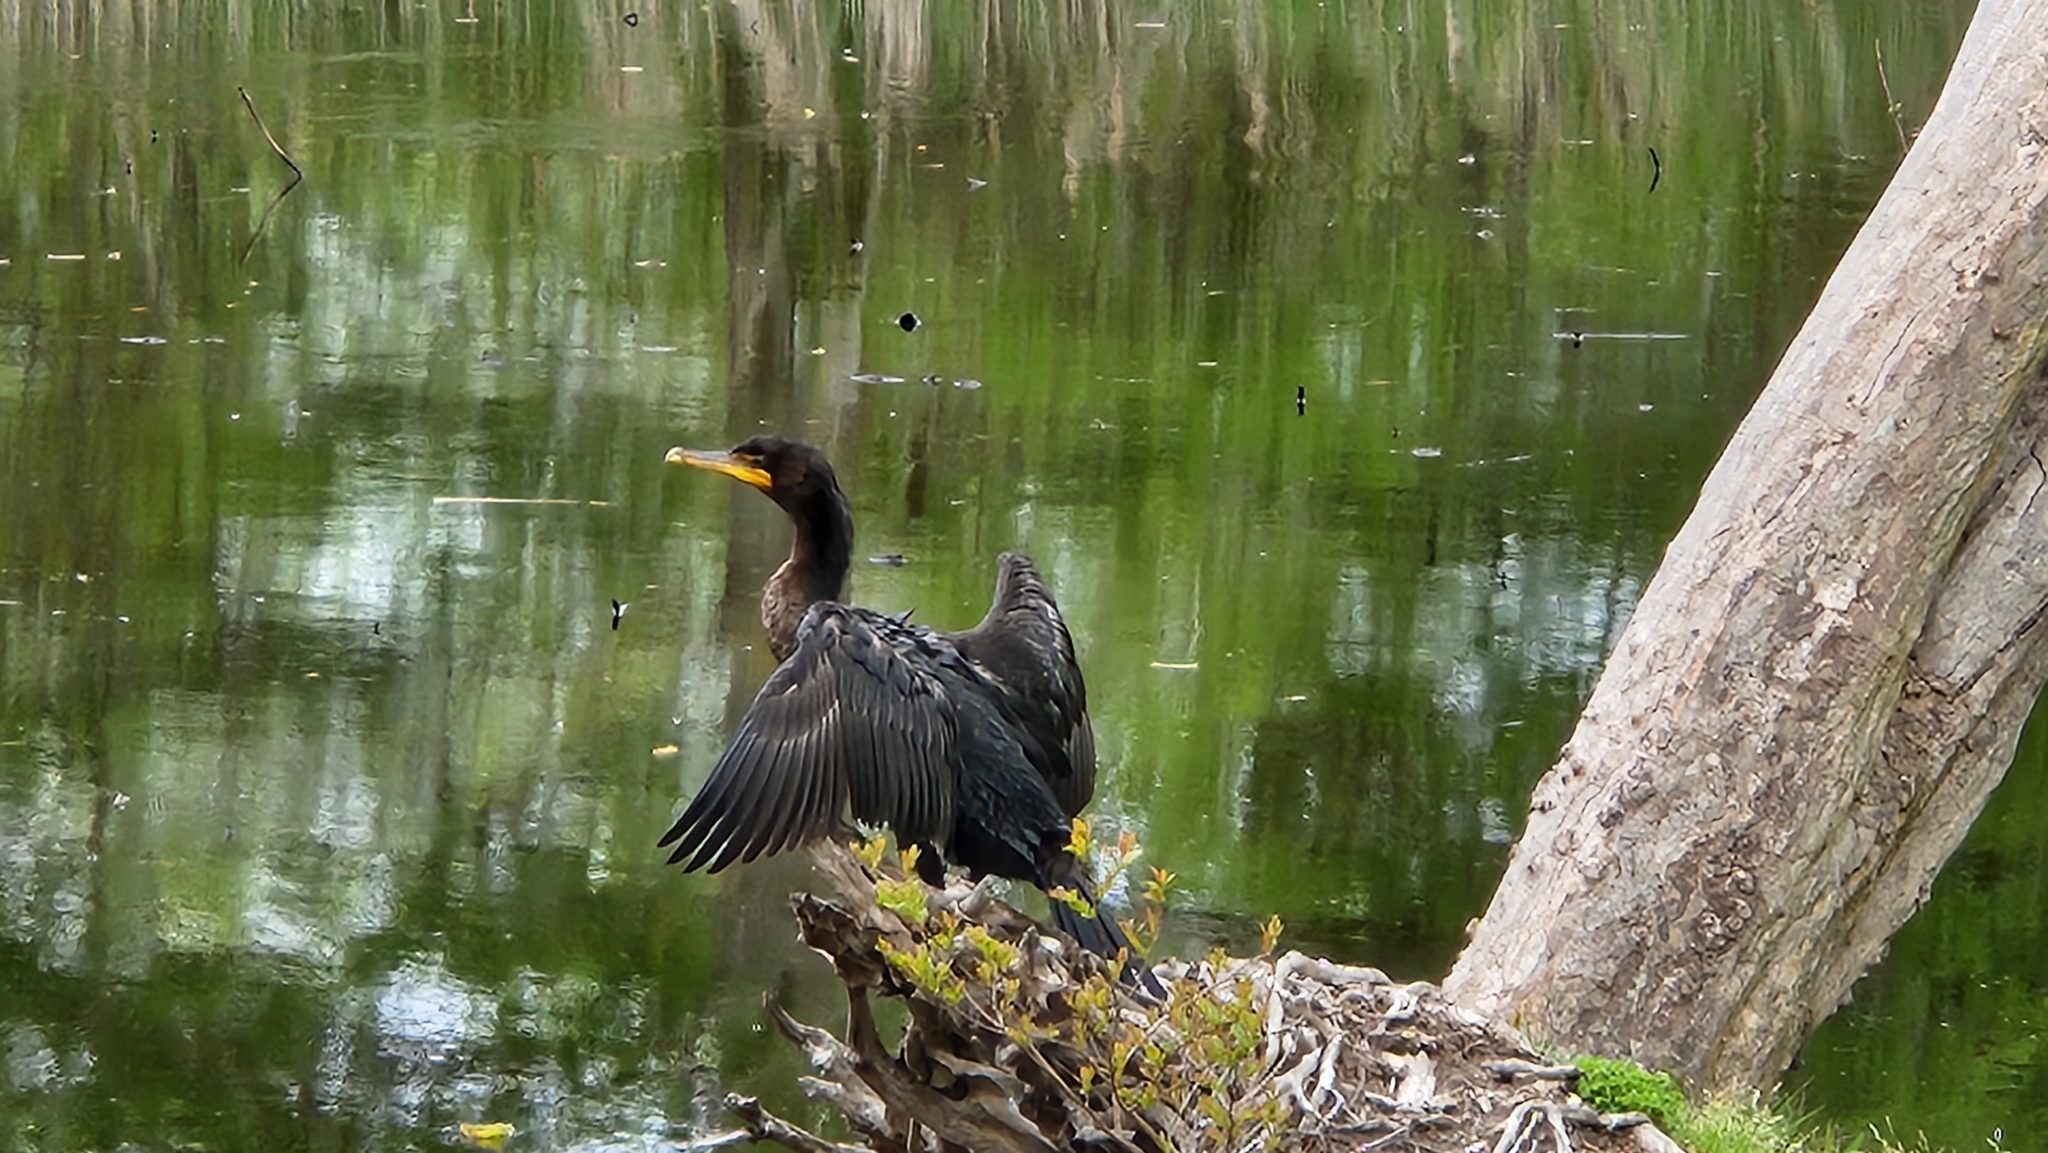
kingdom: Animalia
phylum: Chordata
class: Aves
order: Suliformes
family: Phalacrocoracidae
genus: Phalacrocorax
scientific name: Phalacrocorax auritus
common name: Double-crested cormorant
